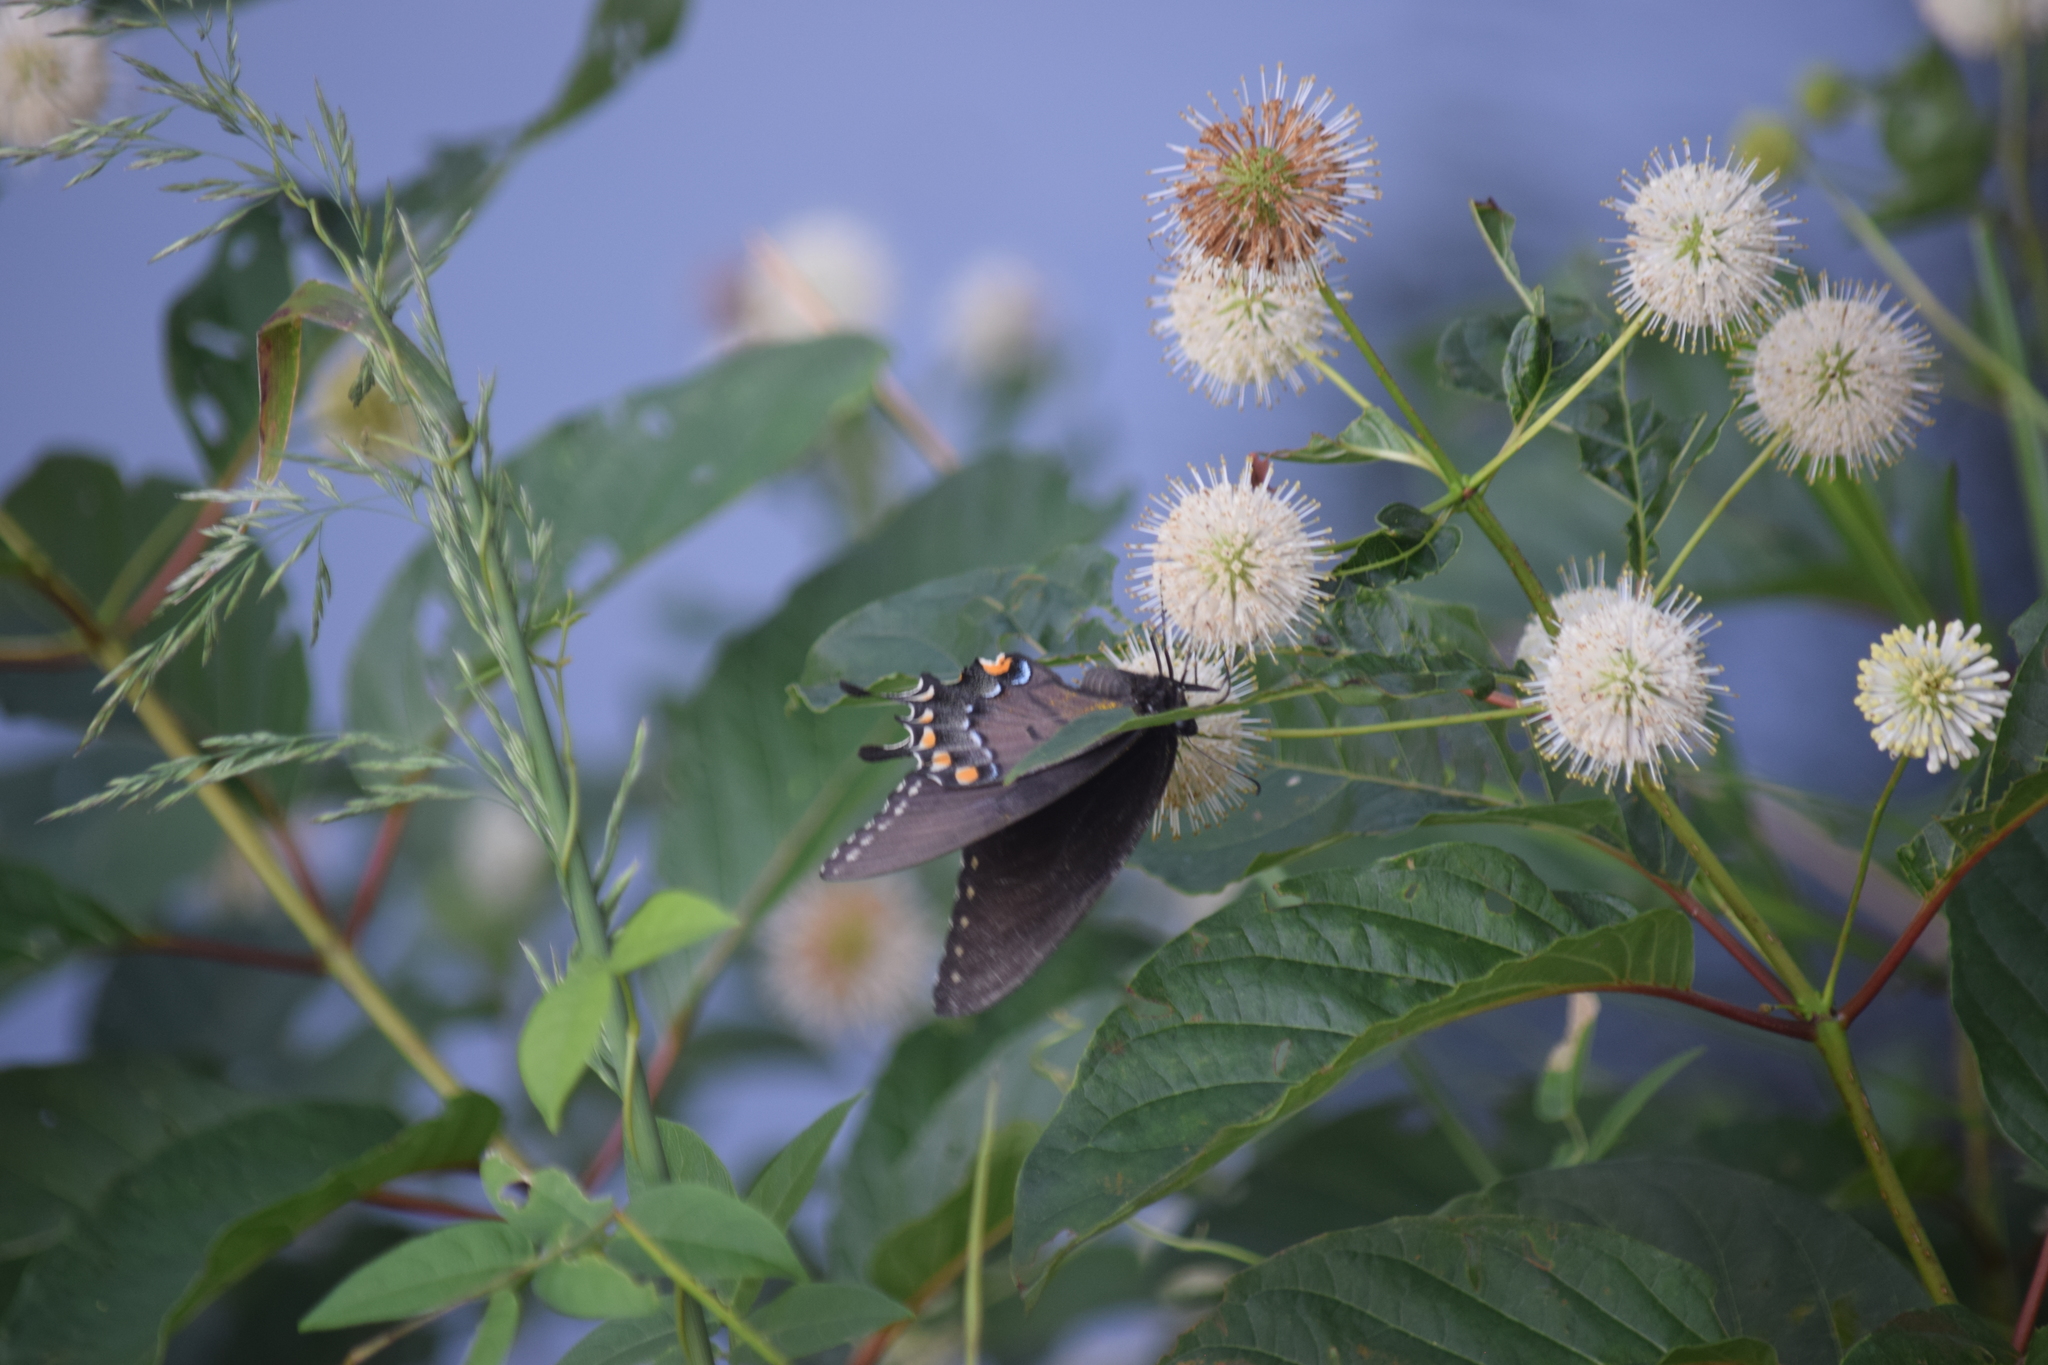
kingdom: Animalia
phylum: Arthropoda
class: Insecta
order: Lepidoptera
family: Papilionidae
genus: Papilio
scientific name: Papilio glaucus
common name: Tiger swallowtail
